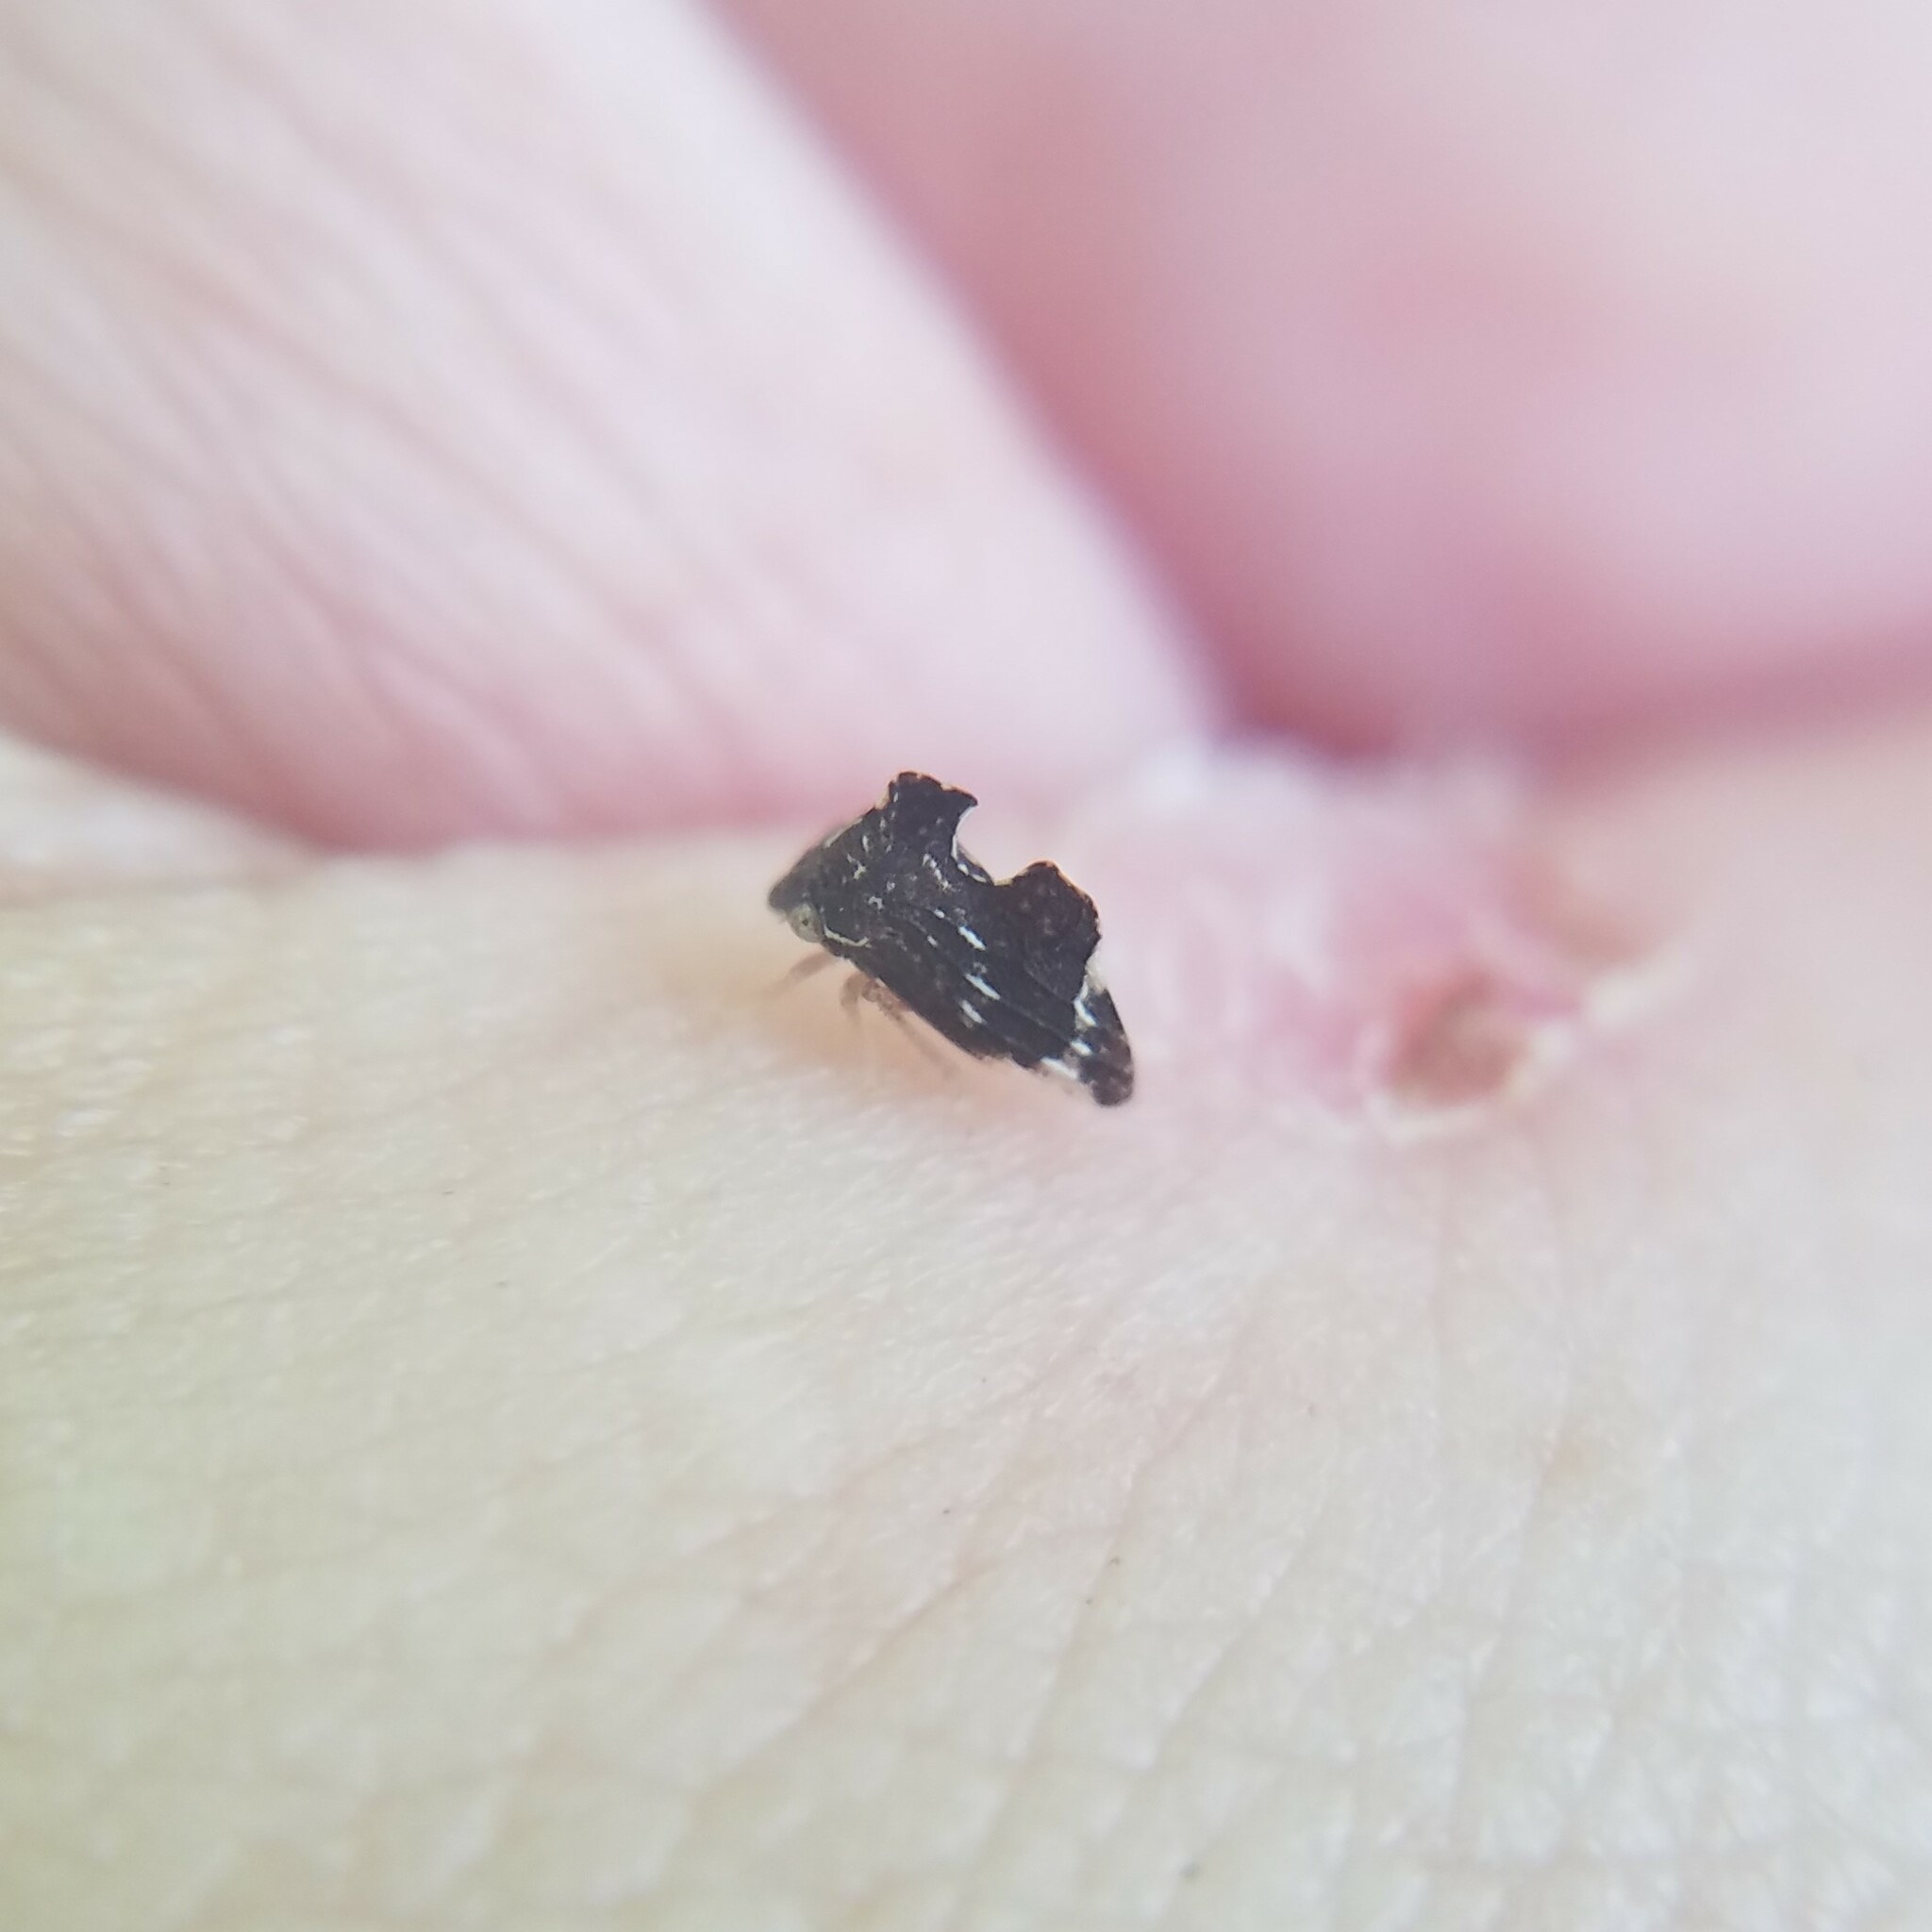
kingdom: Animalia
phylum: Arthropoda
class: Insecta
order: Hemiptera
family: Membracidae
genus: Entylia
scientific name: Entylia carinata
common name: Keeled treehopper
